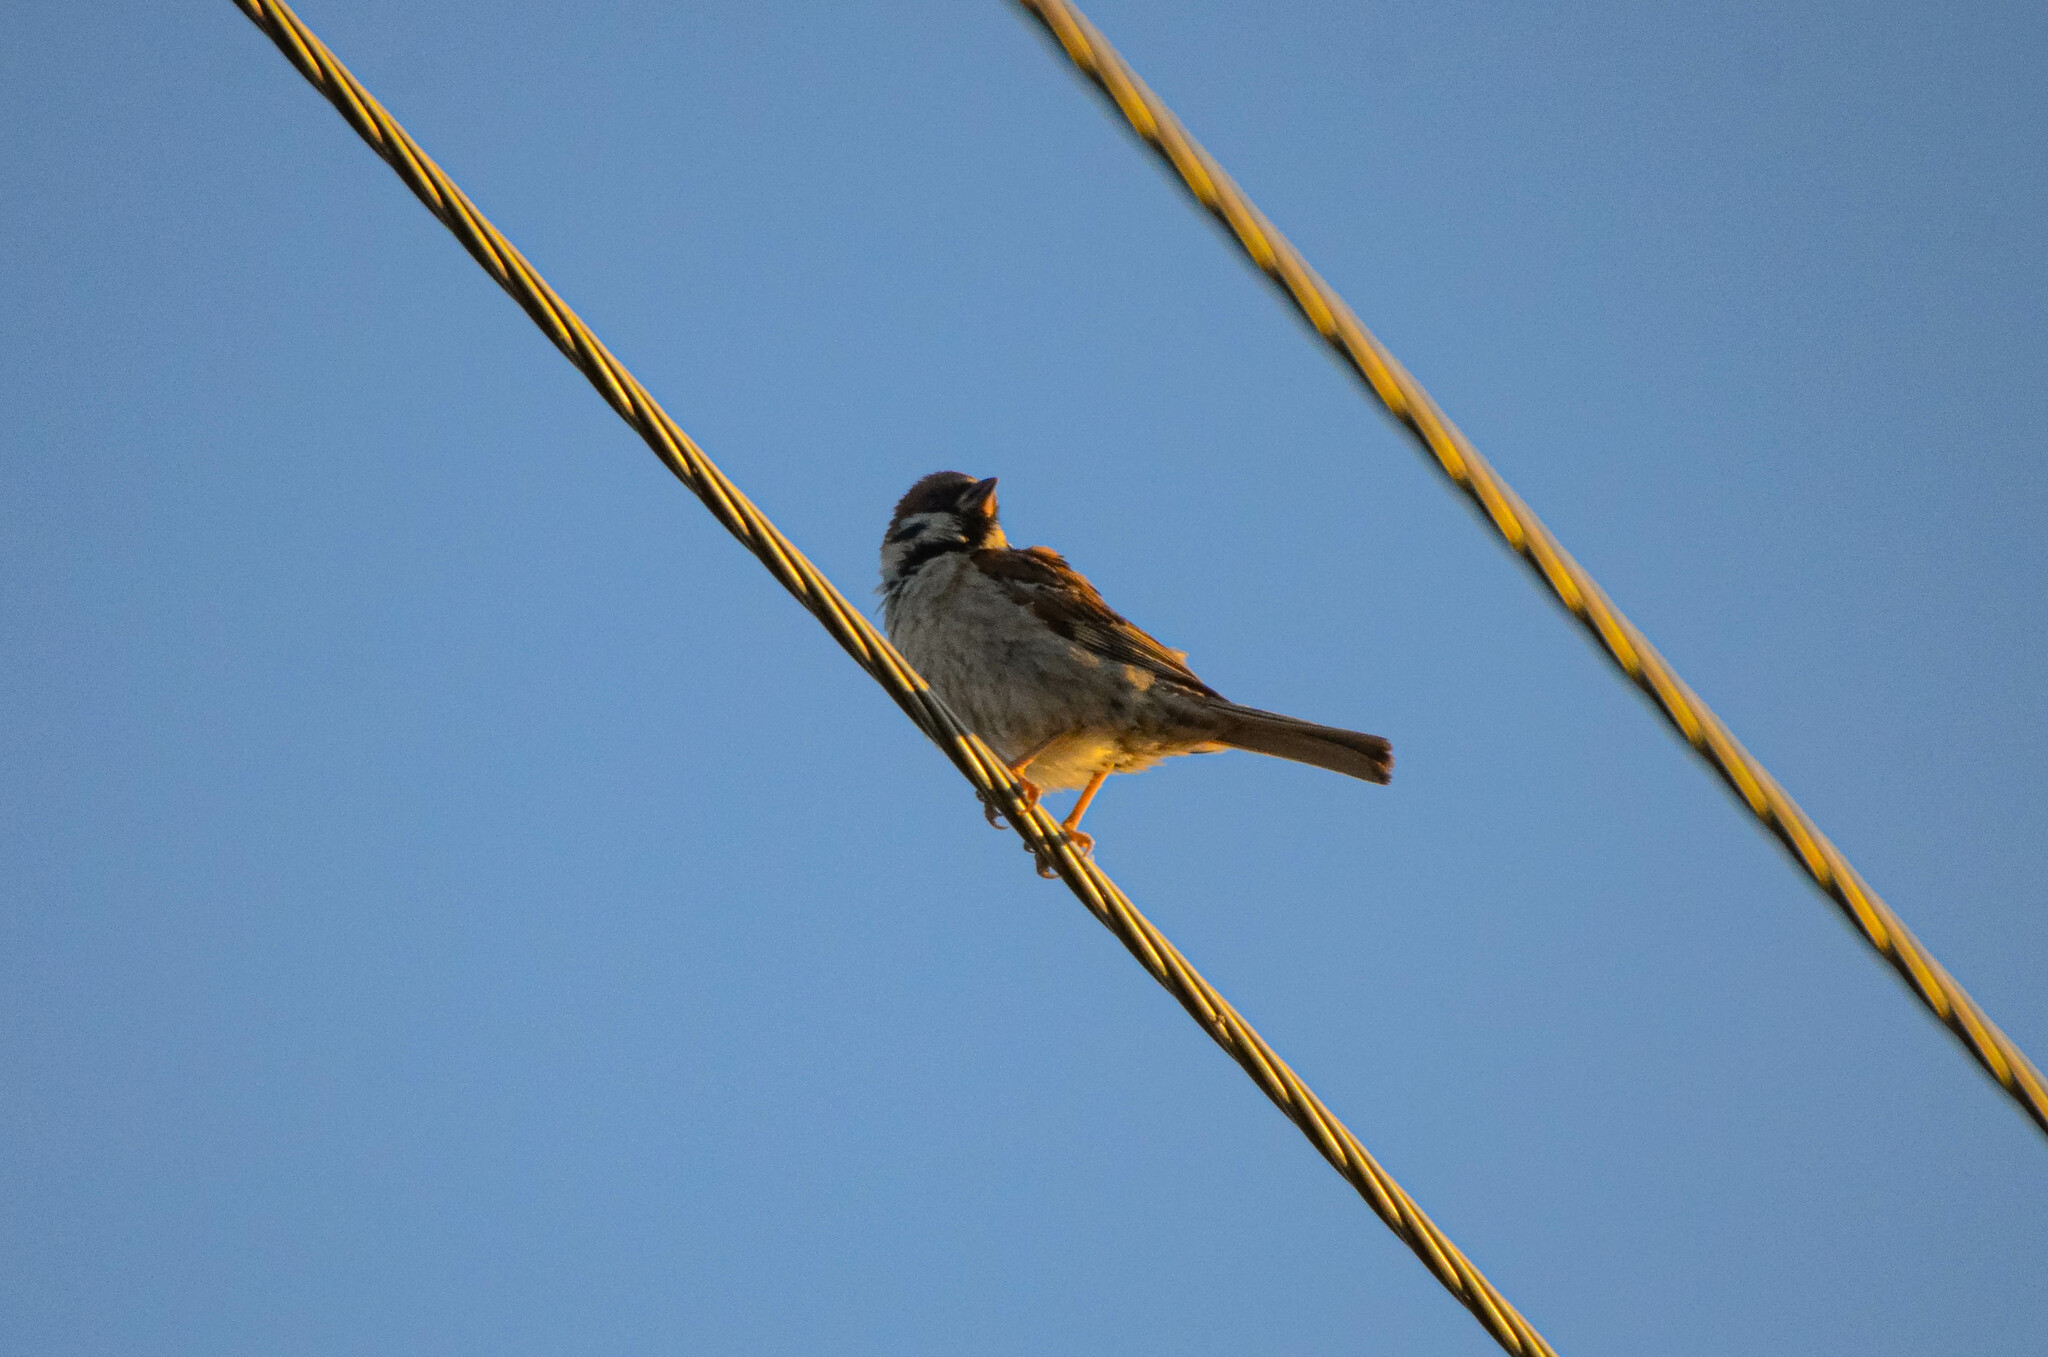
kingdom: Animalia
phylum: Chordata
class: Aves
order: Passeriformes
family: Passeridae
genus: Passer
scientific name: Passer montanus
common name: Eurasian tree sparrow
